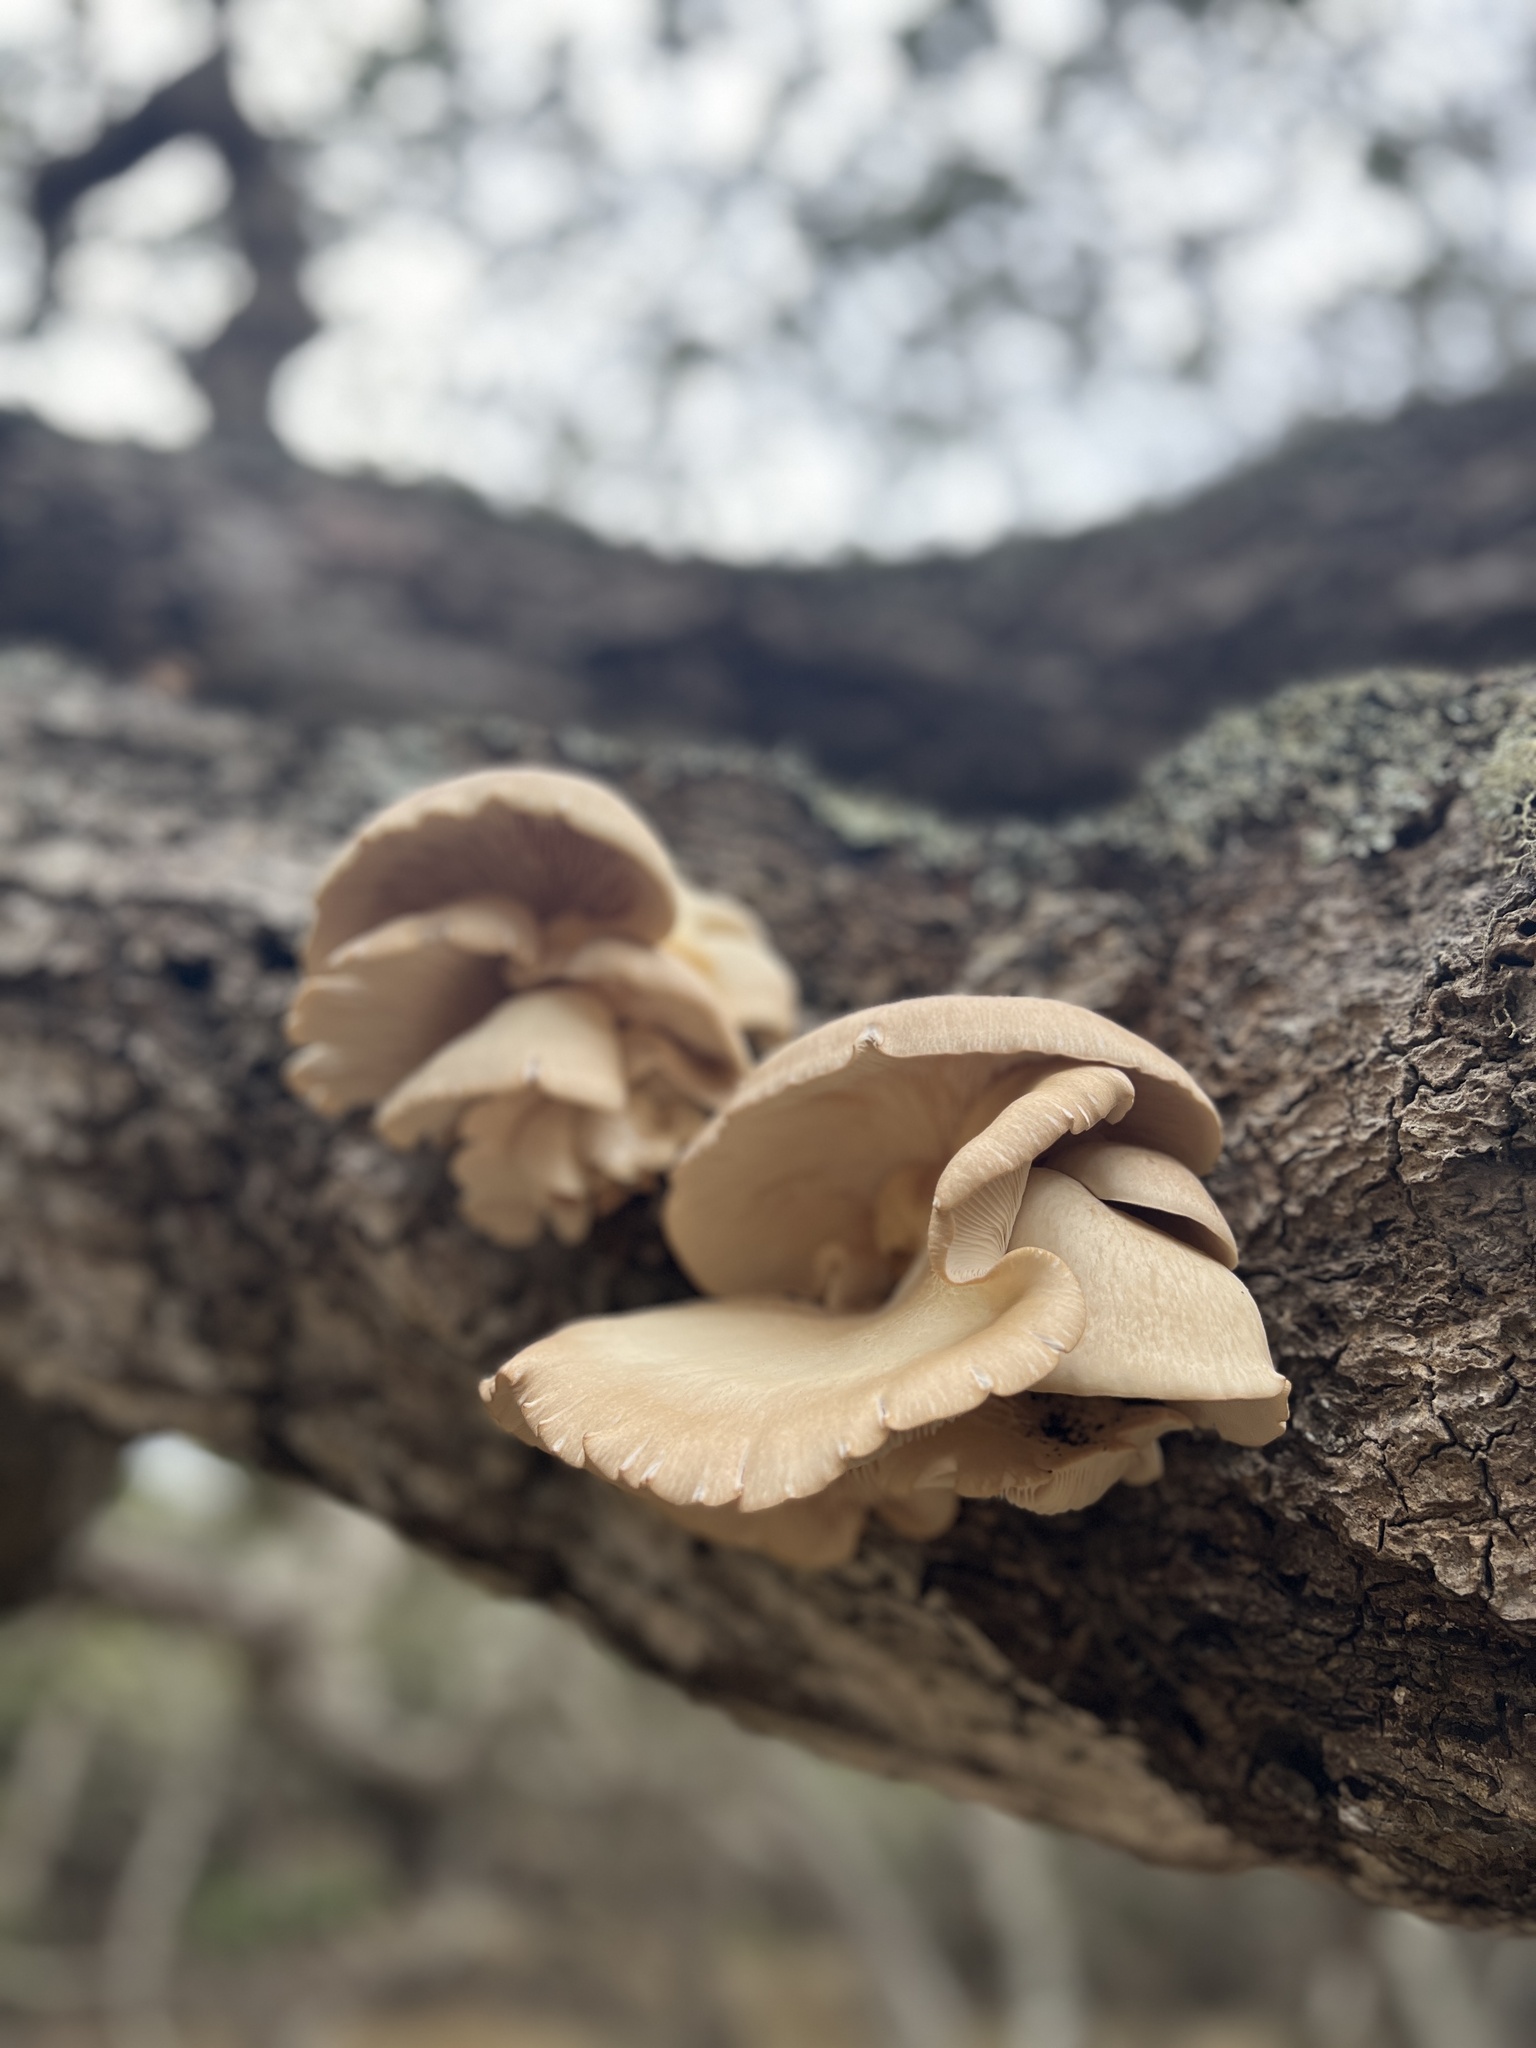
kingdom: Fungi
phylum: Basidiomycota
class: Agaricomycetes
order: Agaricales
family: Pleurotaceae
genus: Pleurotus
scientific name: Pleurotus ostreatus
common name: Oyster mushroom
